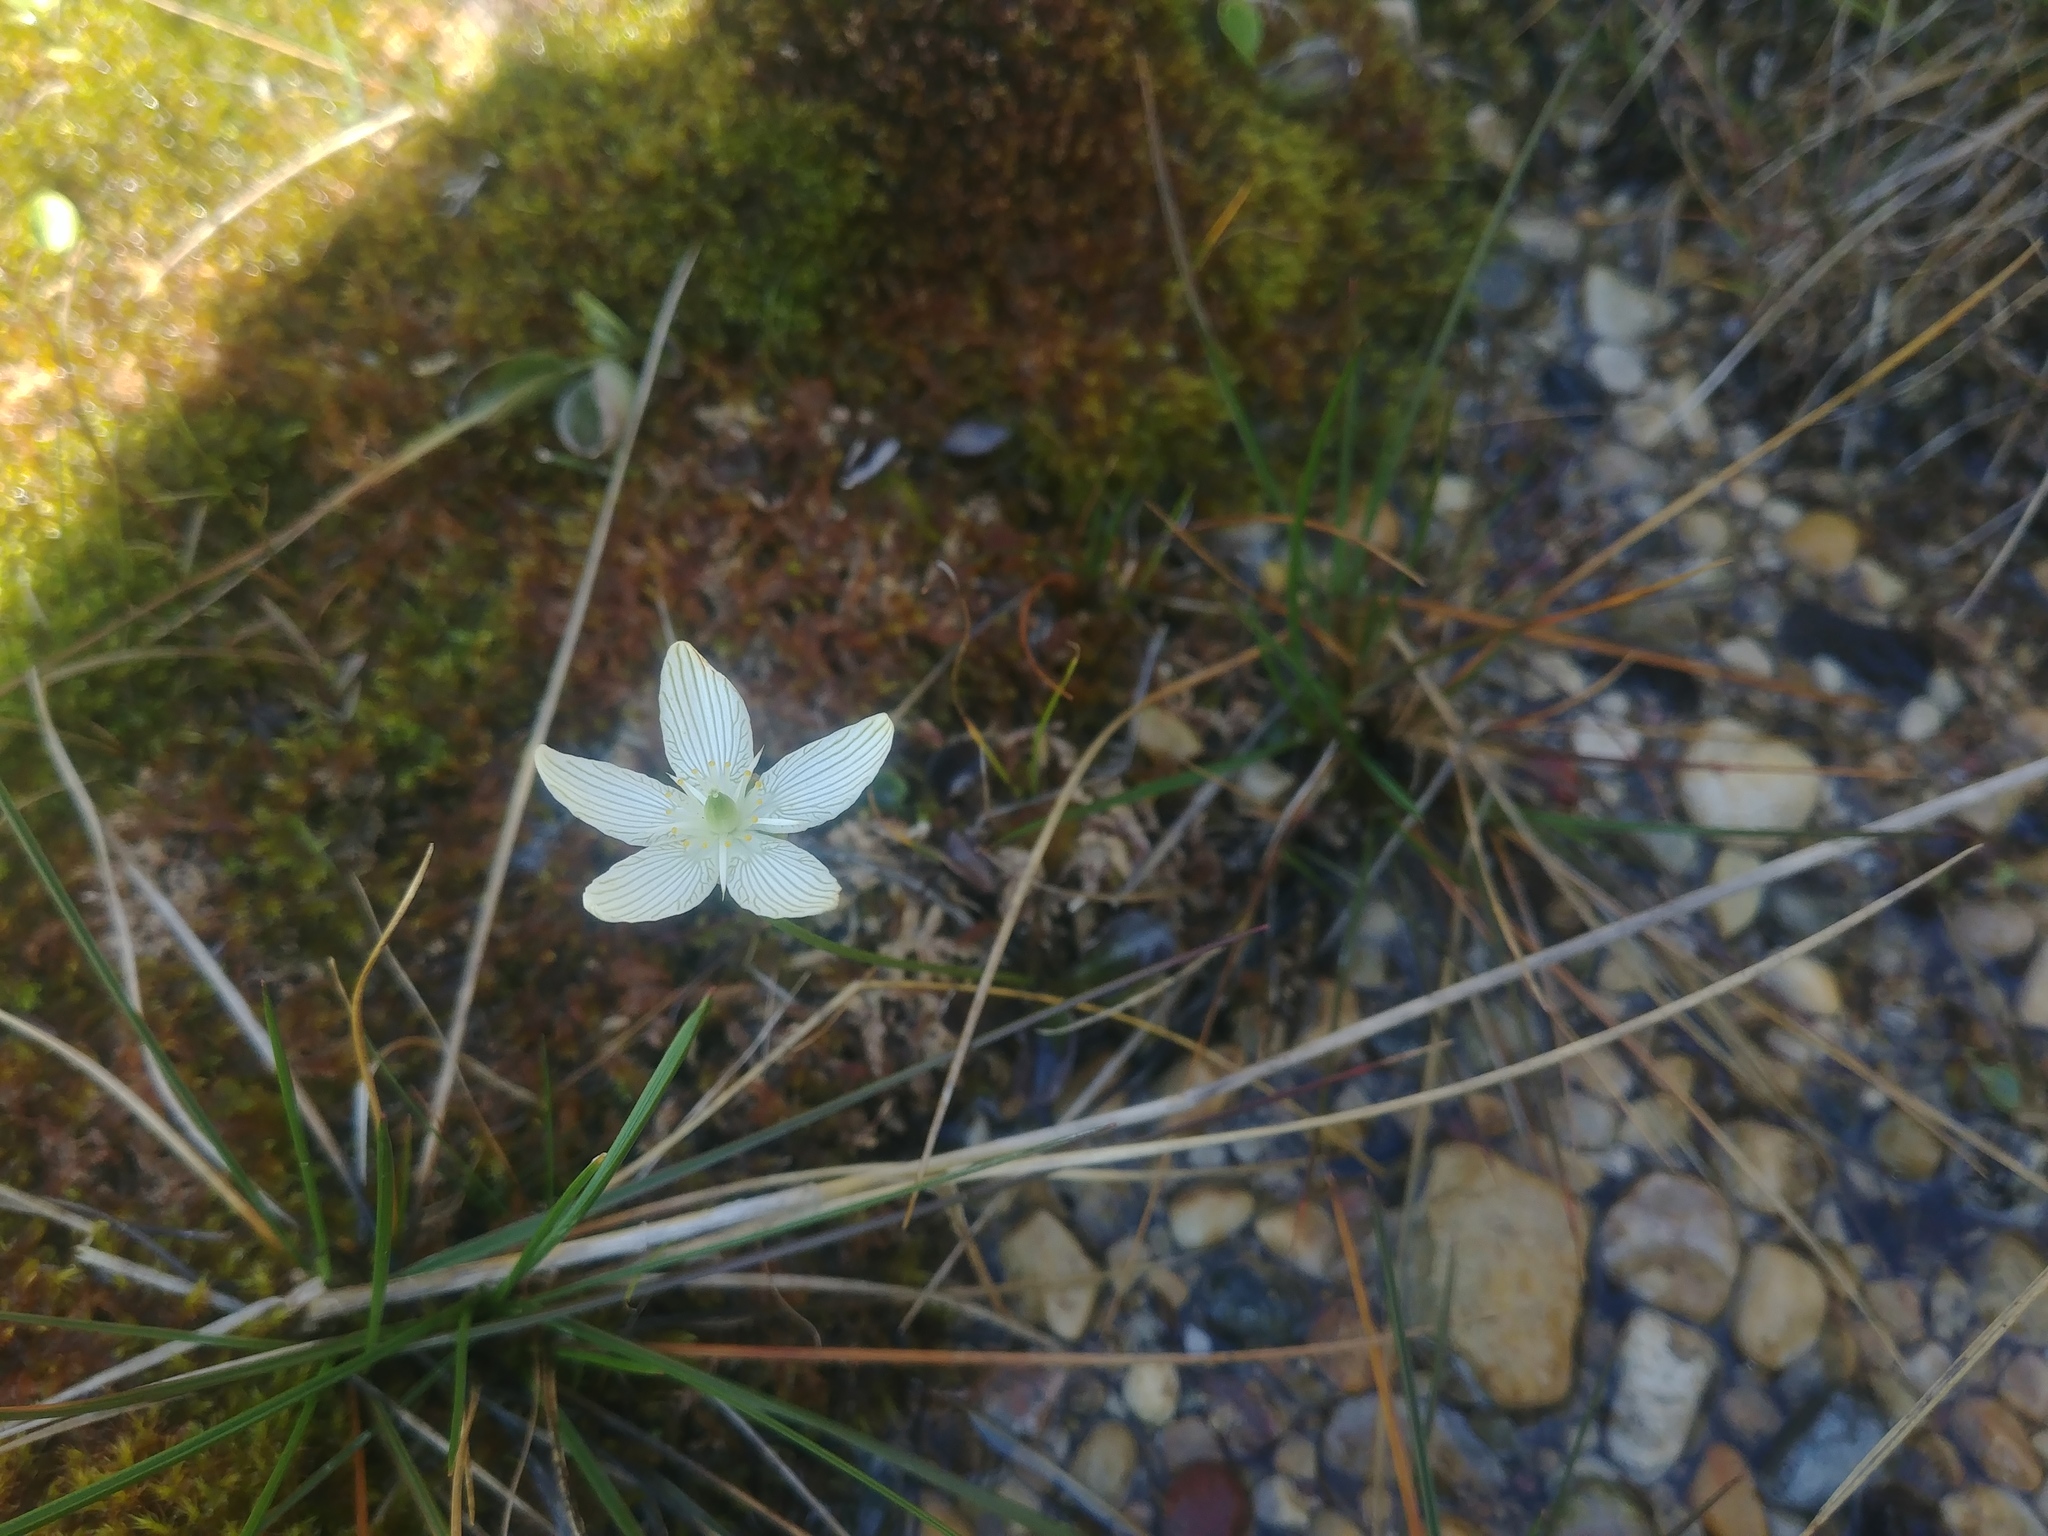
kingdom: Plantae
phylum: Tracheophyta
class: Magnoliopsida
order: Celastrales
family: Parnassiaceae
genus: Parnassia
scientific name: Parnassia glauca
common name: American grass-of-parnassus
